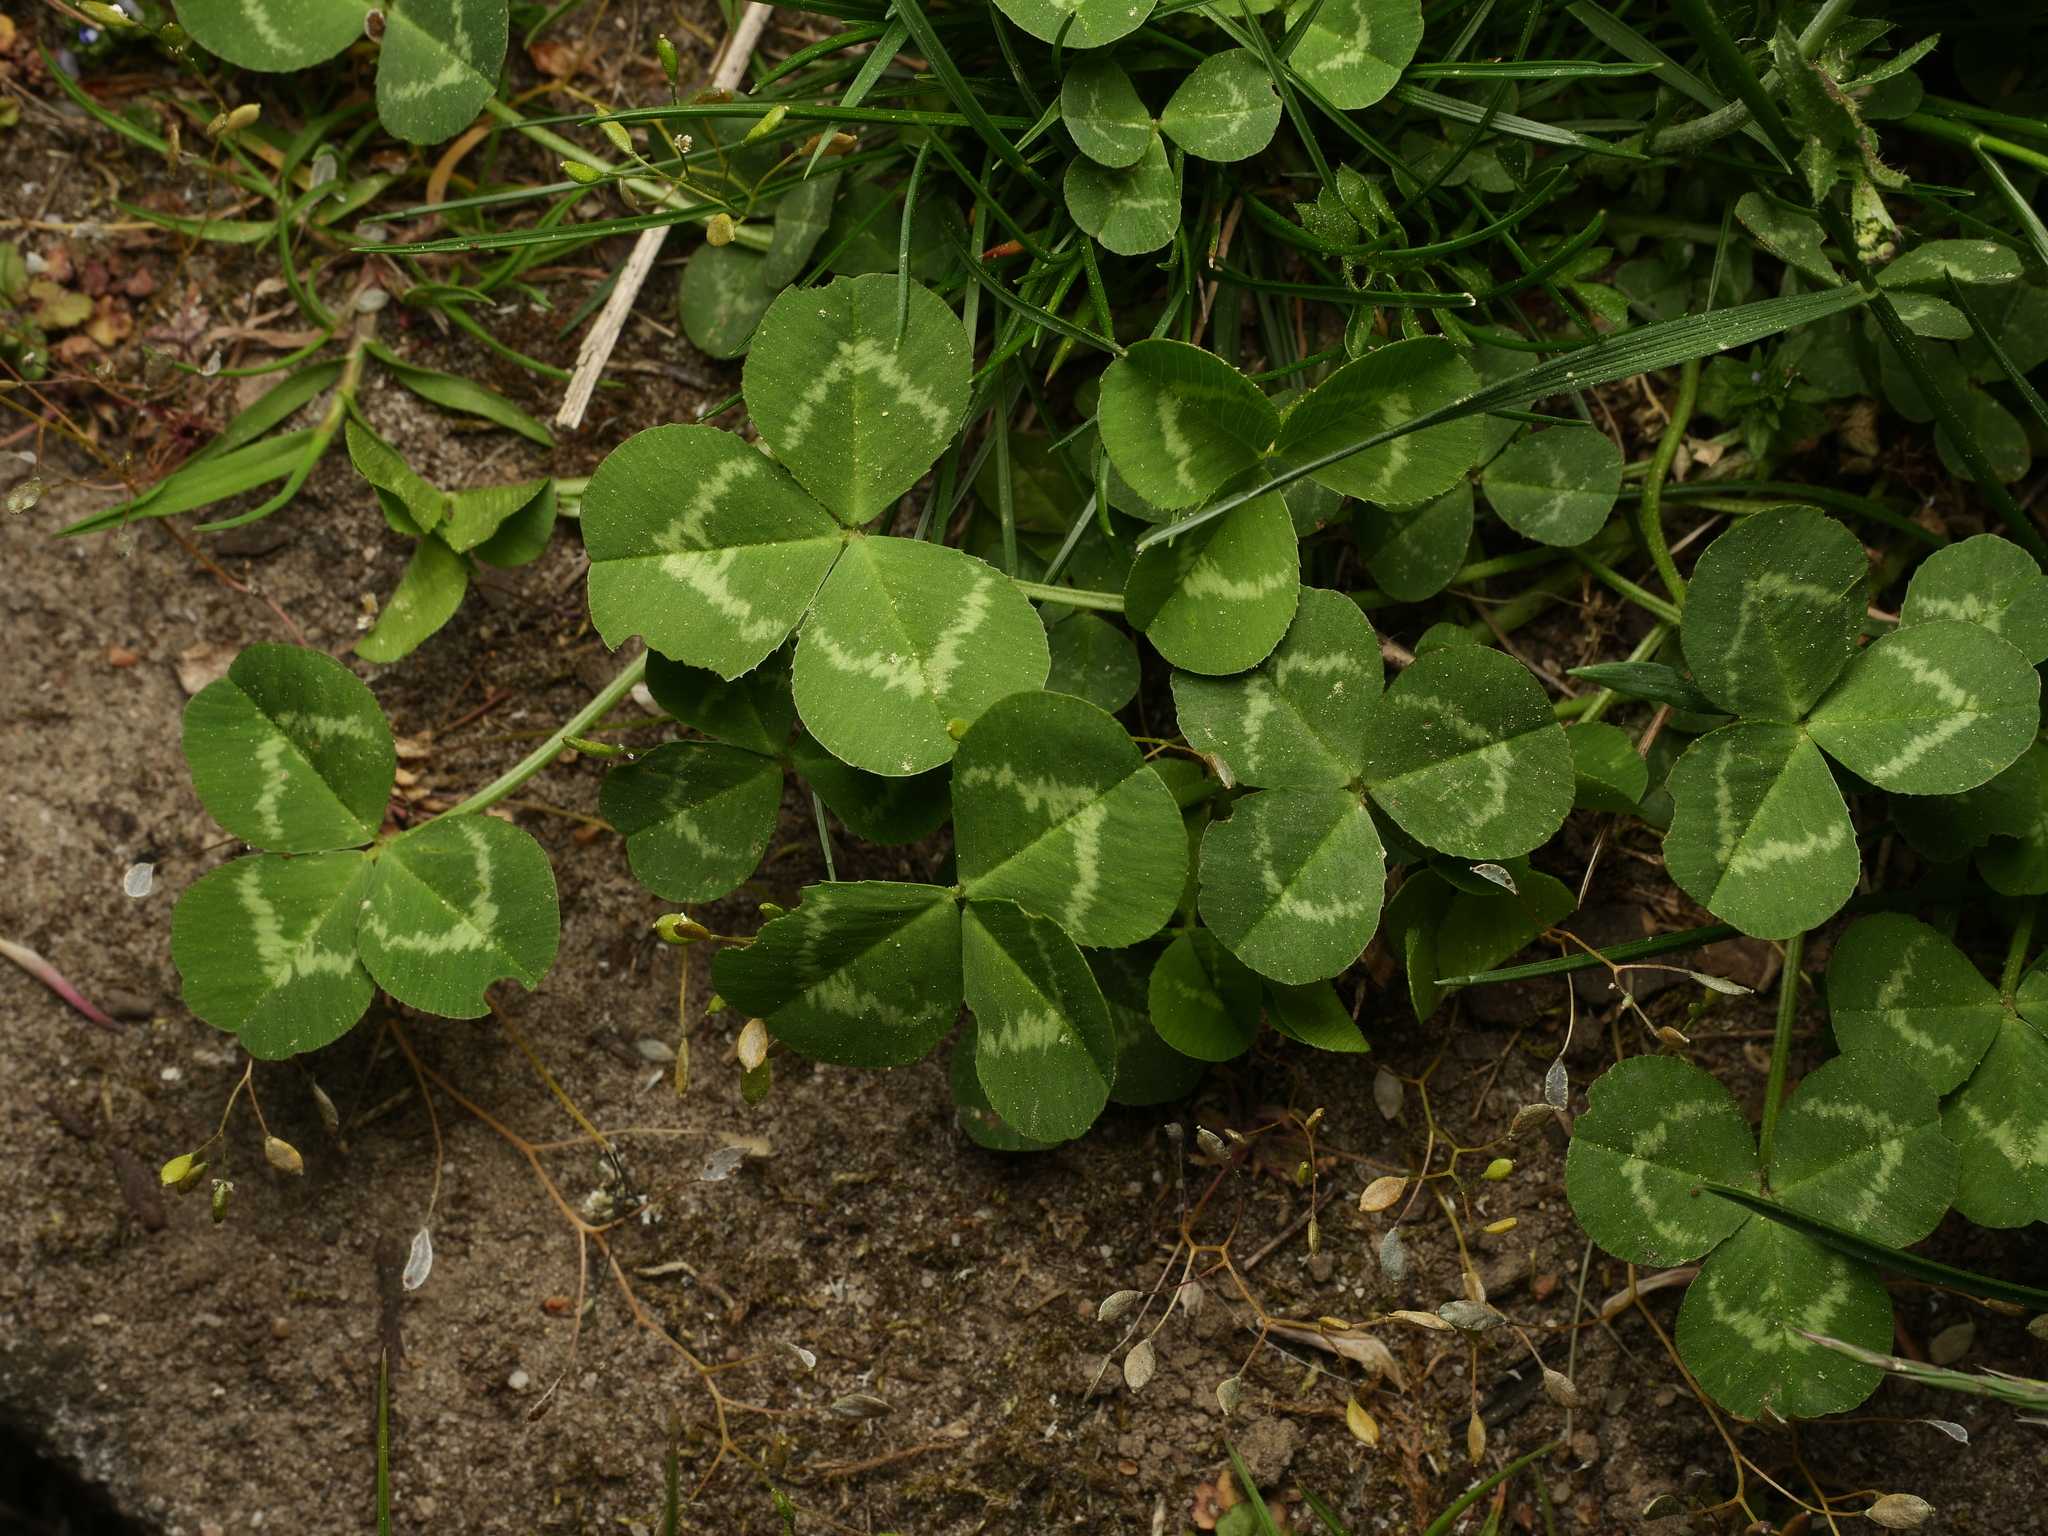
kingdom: Plantae
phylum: Tracheophyta
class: Magnoliopsida
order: Fabales
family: Fabaceae
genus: Trifolium
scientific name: Trifolium repens
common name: White clover
